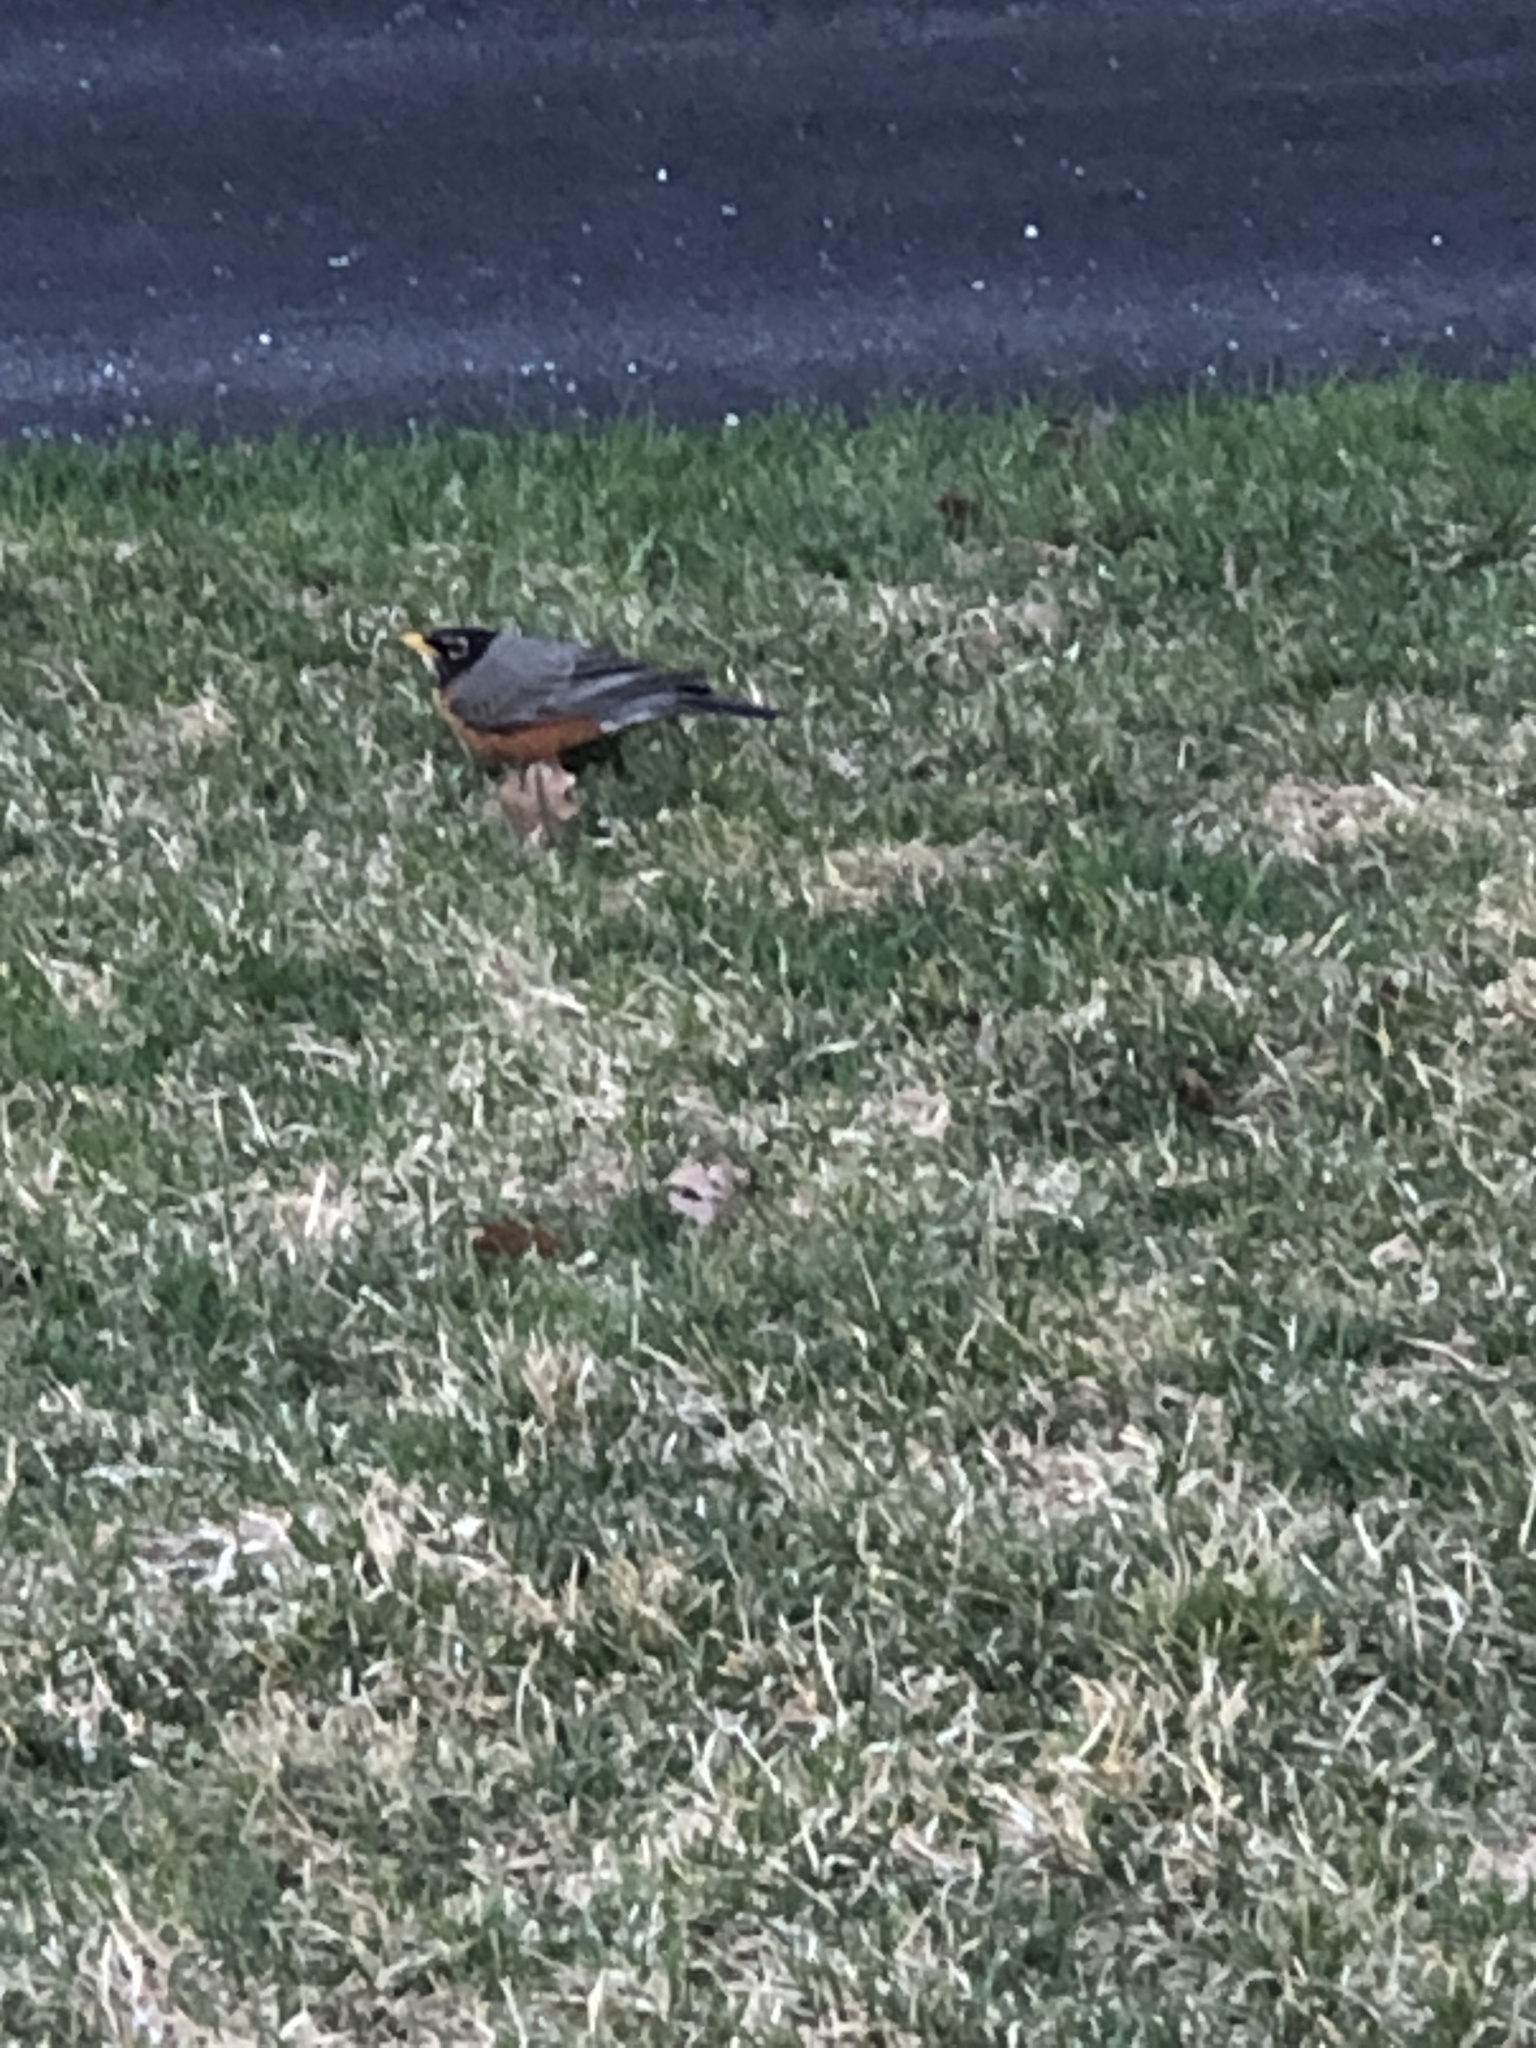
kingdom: Animalia
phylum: Chordata
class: Aves
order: Passeriformes
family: Turdidae
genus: Turdus
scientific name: Turdus migratorius
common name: American robin
